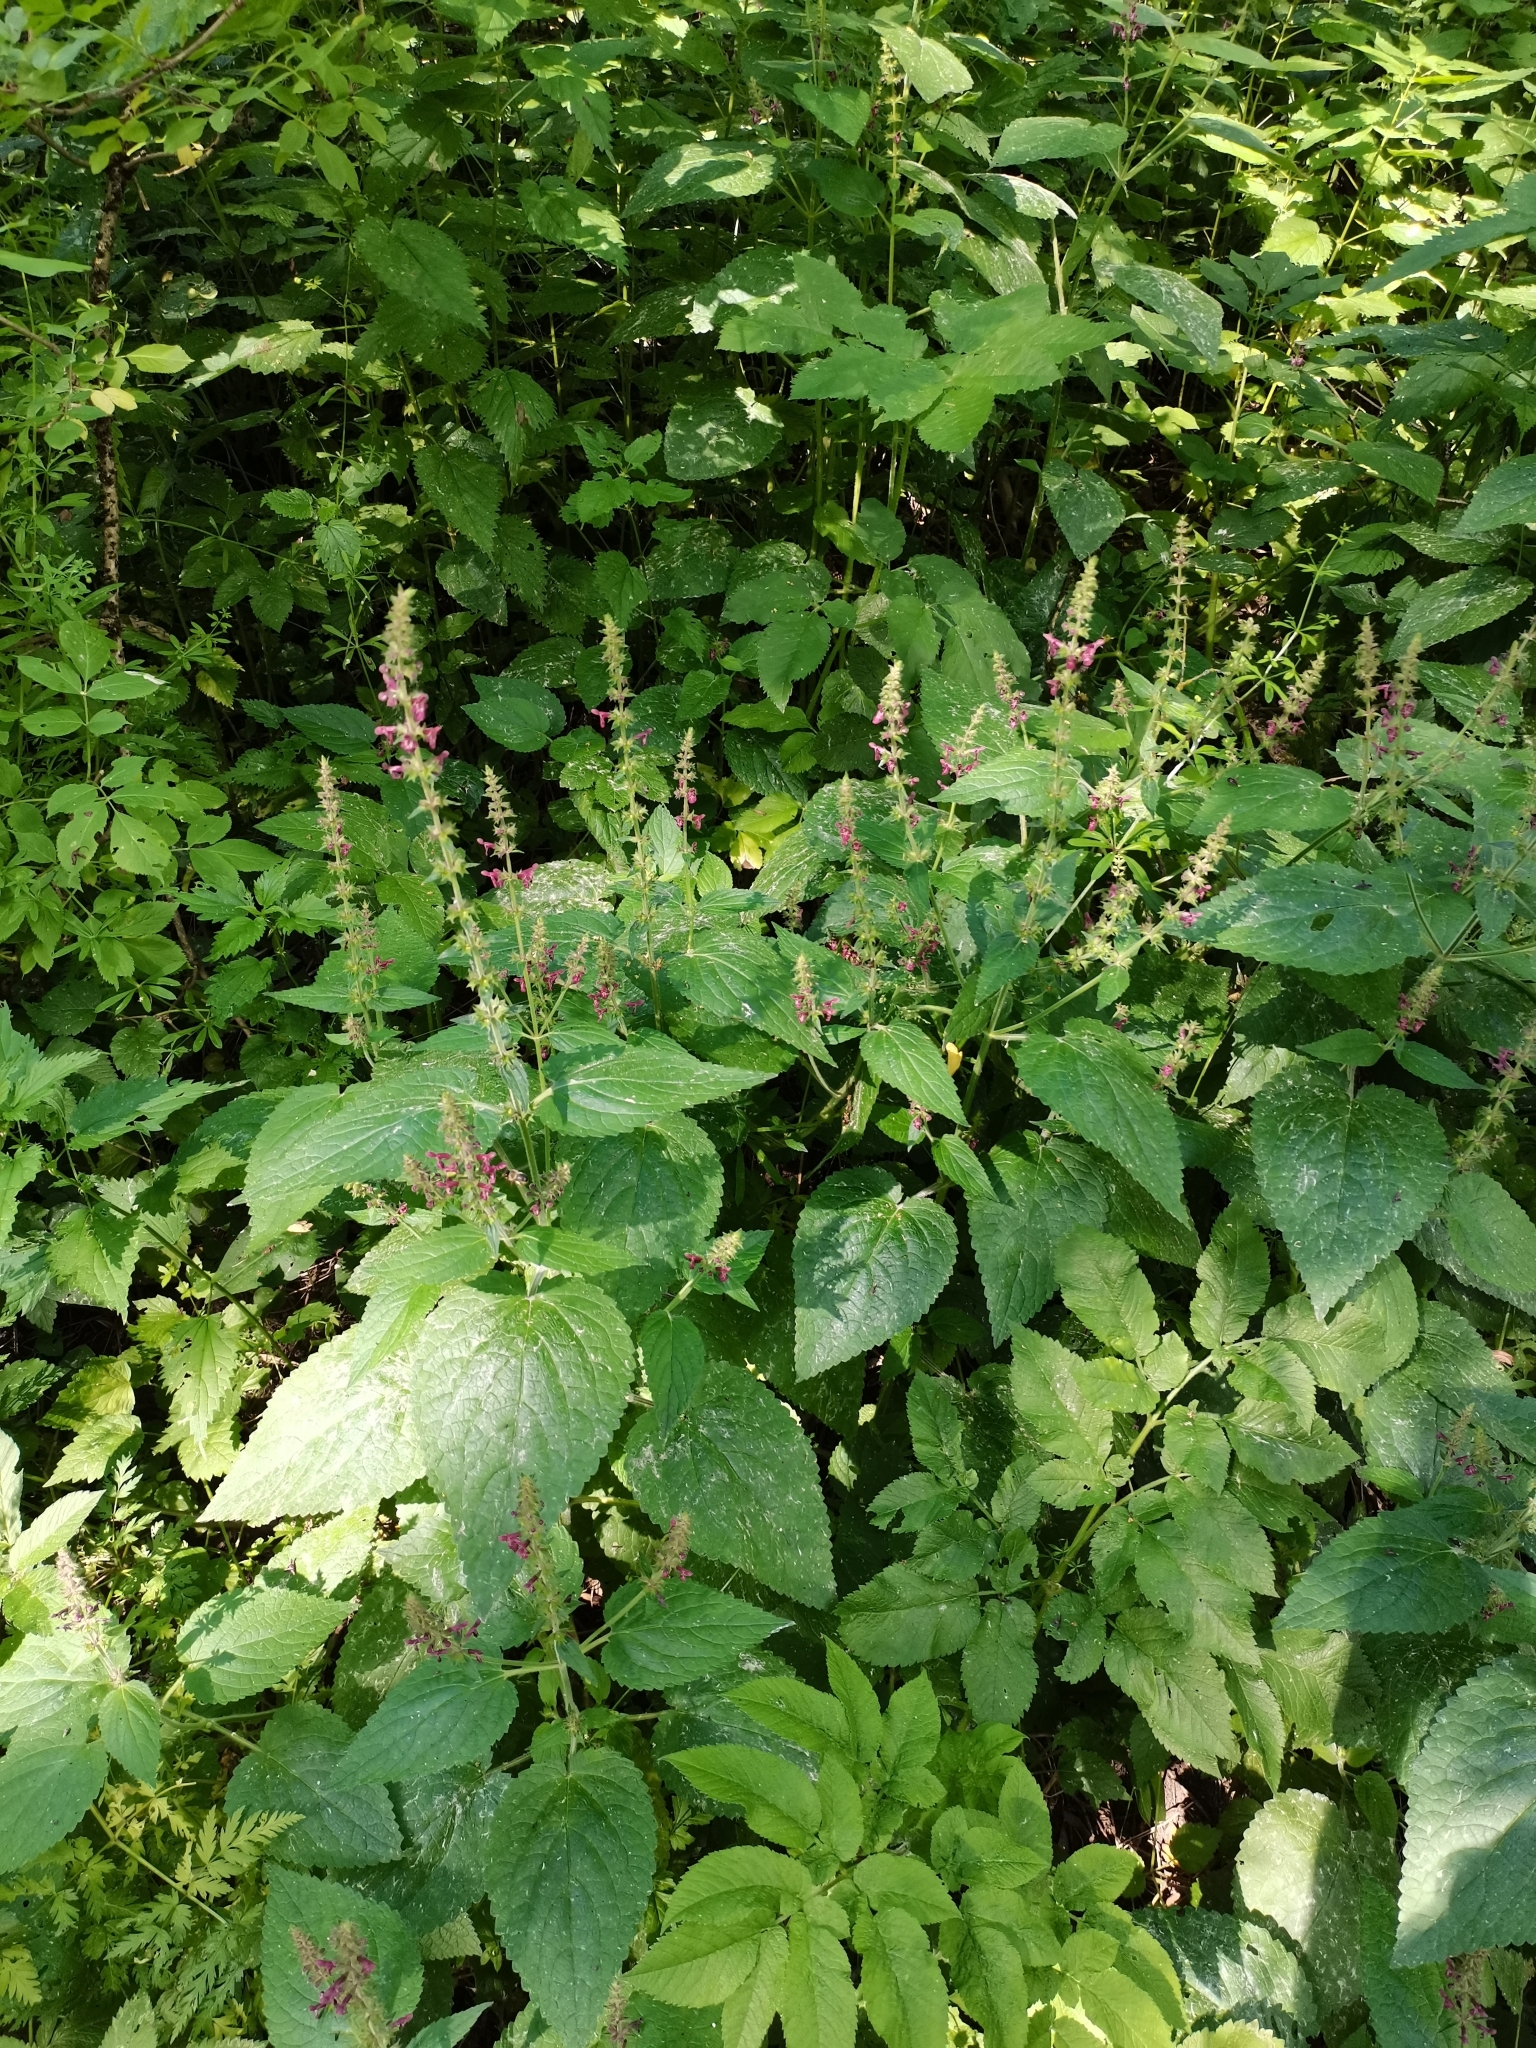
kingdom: Plantae
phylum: Tracheophyta
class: Magnoliopsida
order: Lamiales
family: Lamiaceae
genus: Stachys
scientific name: Stachys sylvatica
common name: Hedge woundwort
